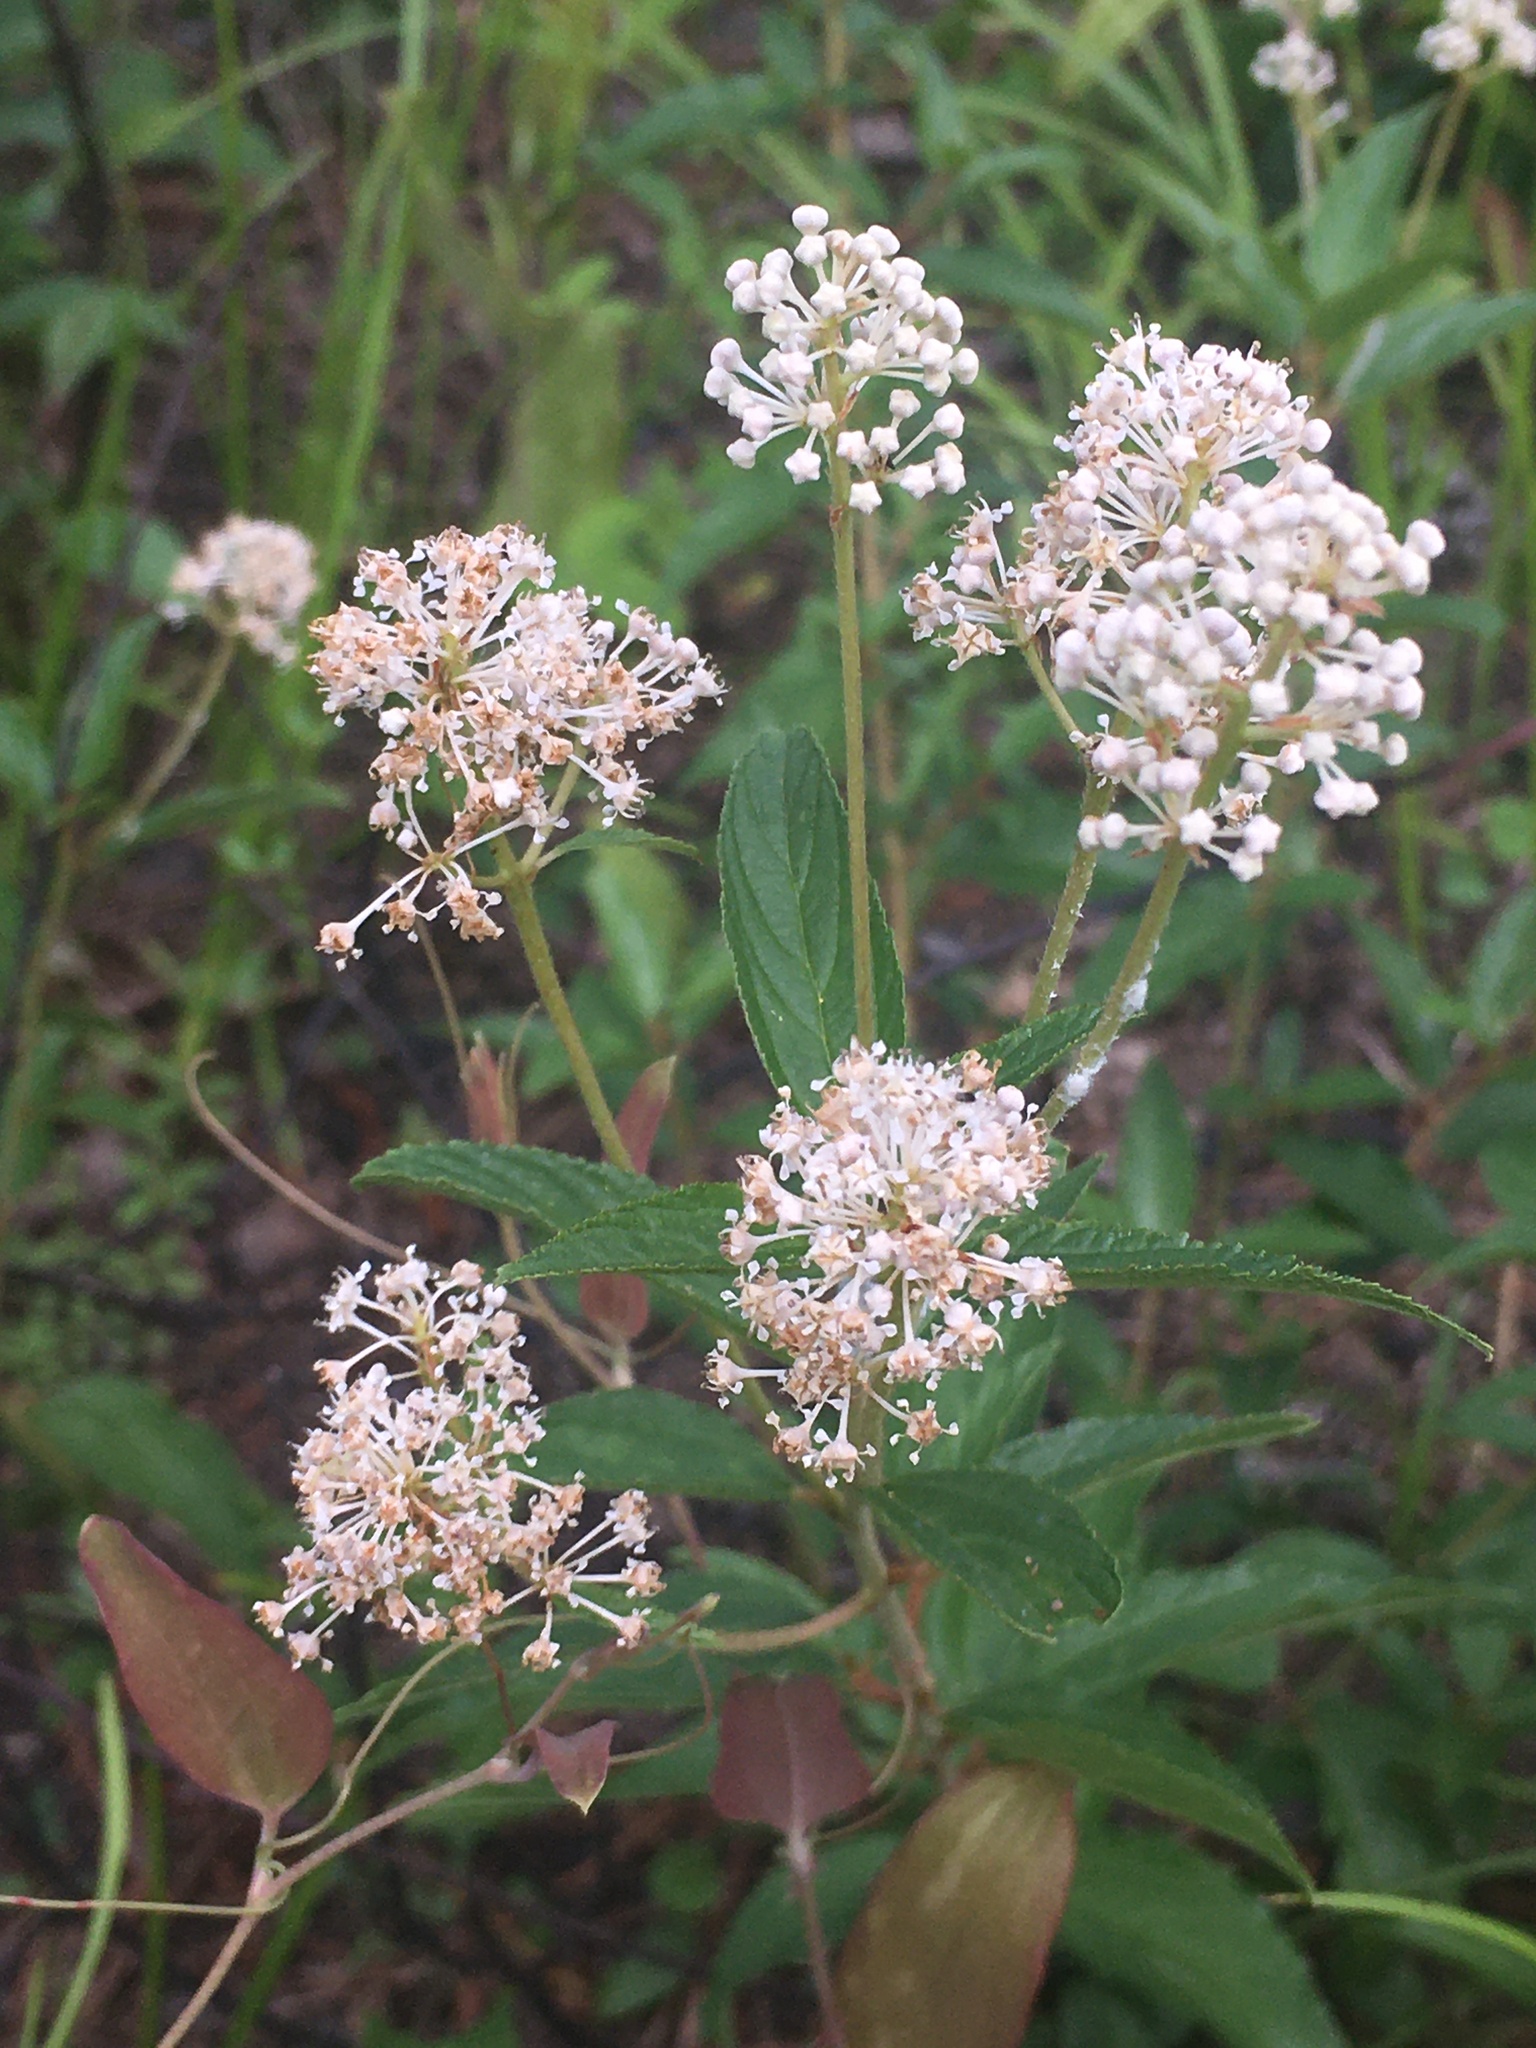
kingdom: Plantae
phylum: Tracheophyta
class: Magnoliopsida
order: Rosales
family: Rhamnaceae
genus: Ceanothus
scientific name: Ceanothus americanus
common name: Redroot
